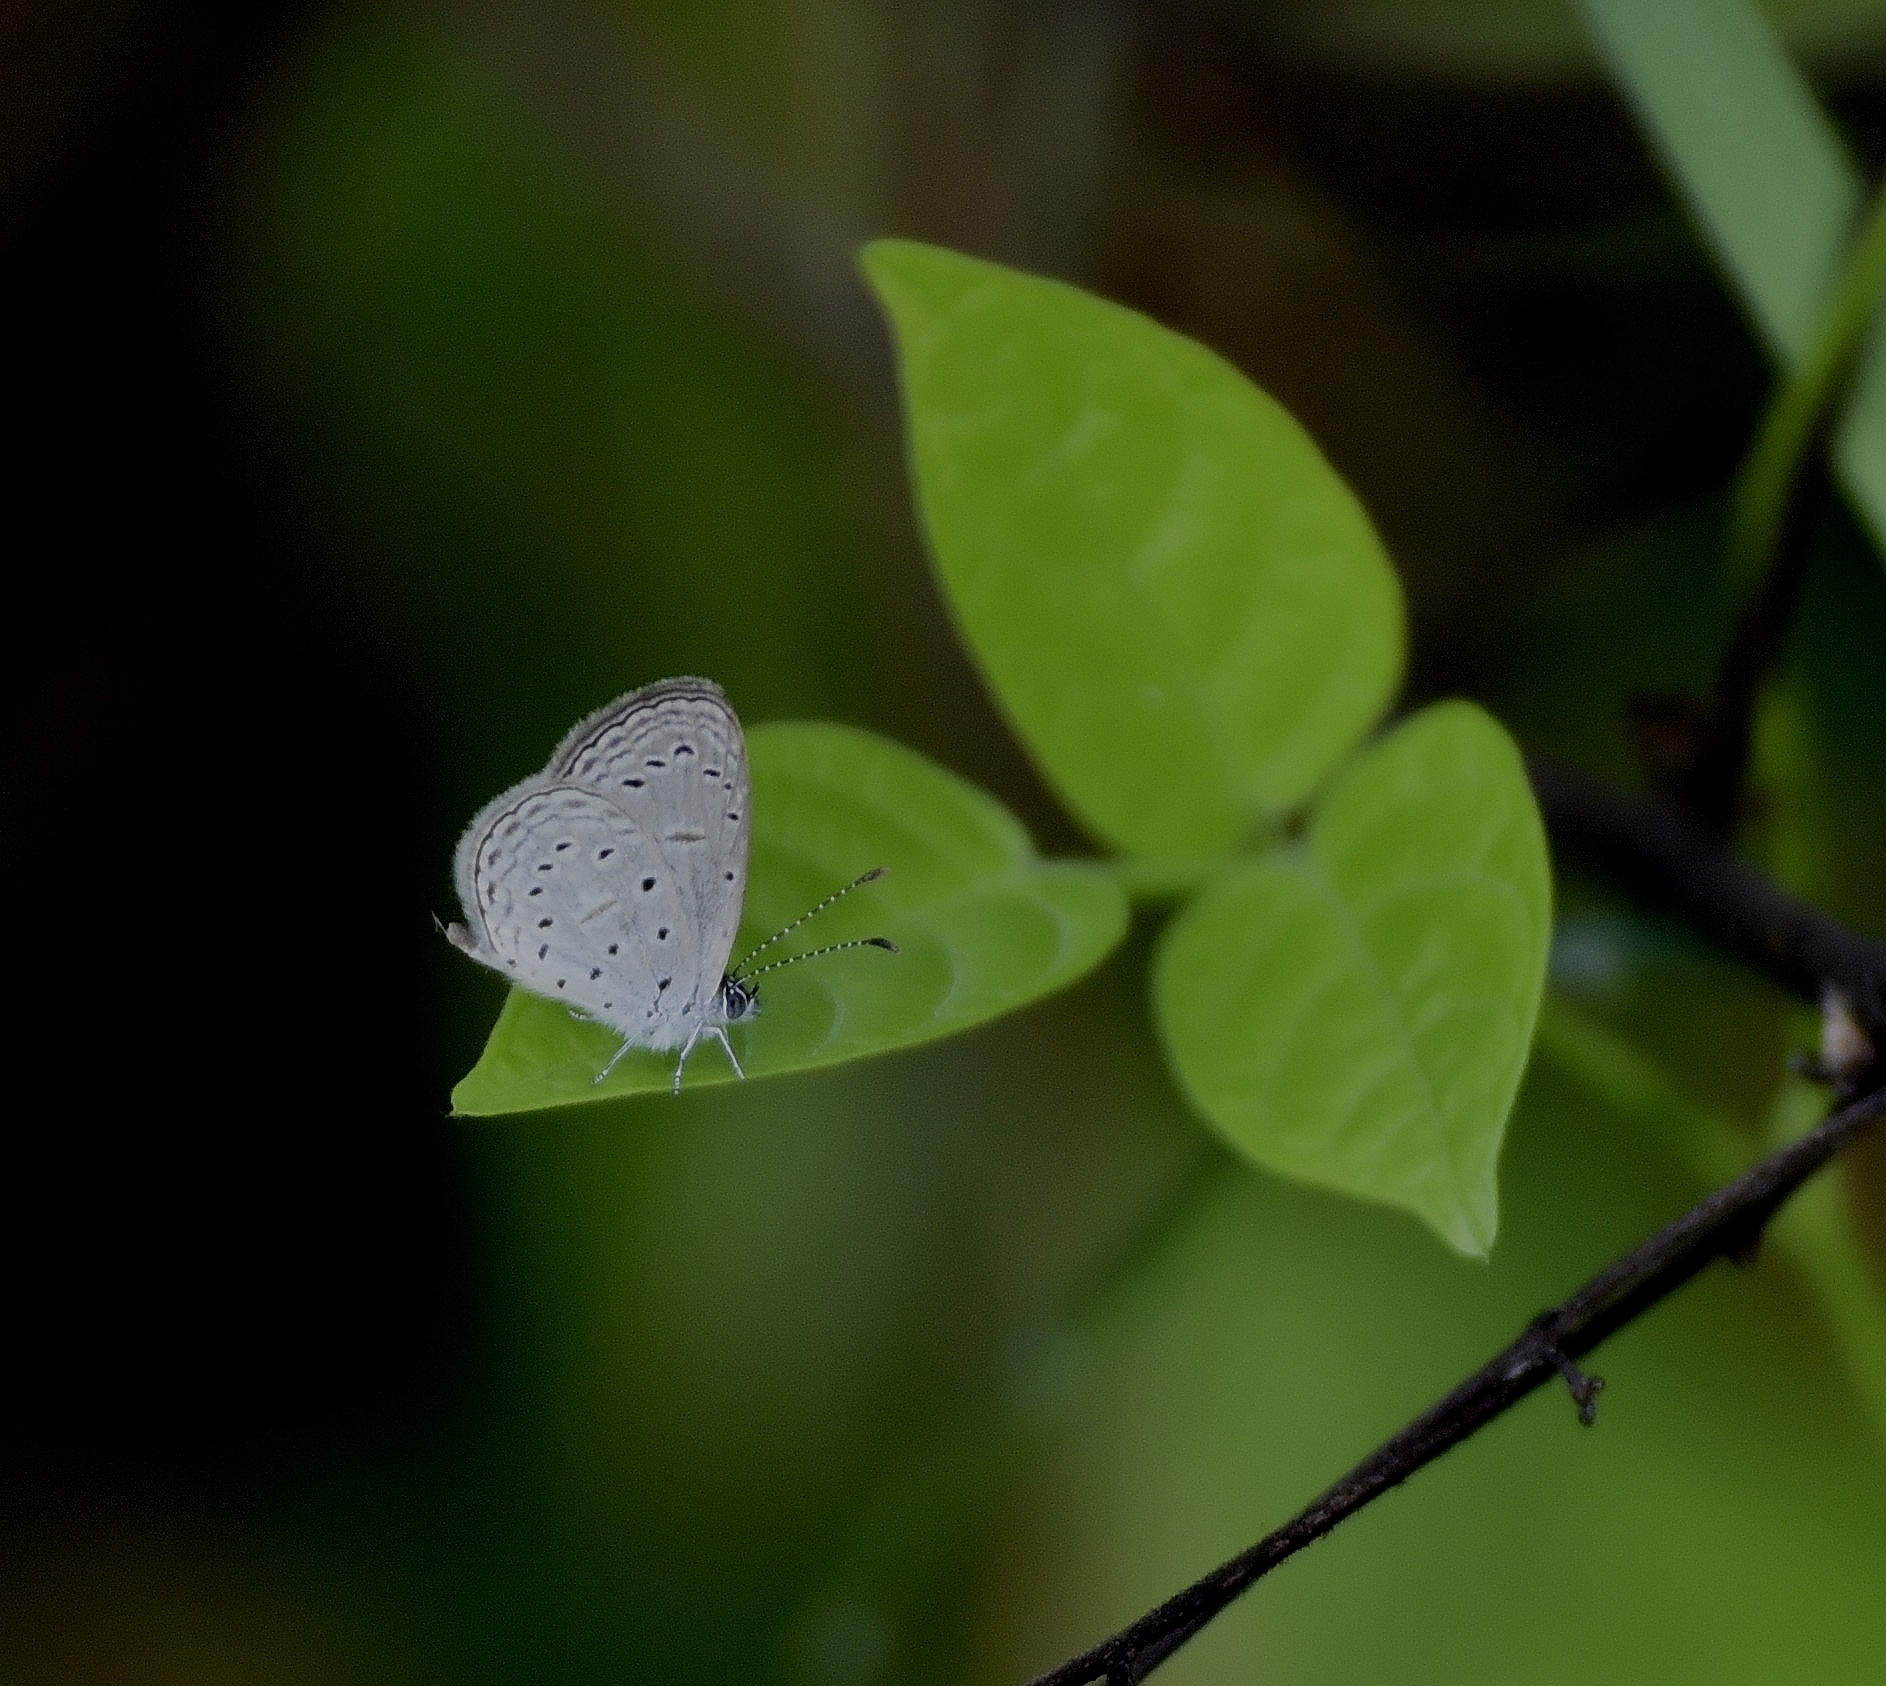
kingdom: Animalia
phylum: Arthropoda
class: Insecta
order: Lepidoptera
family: Lycaenidae
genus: Zizula
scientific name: Zizula hylax
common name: Gaika blue
